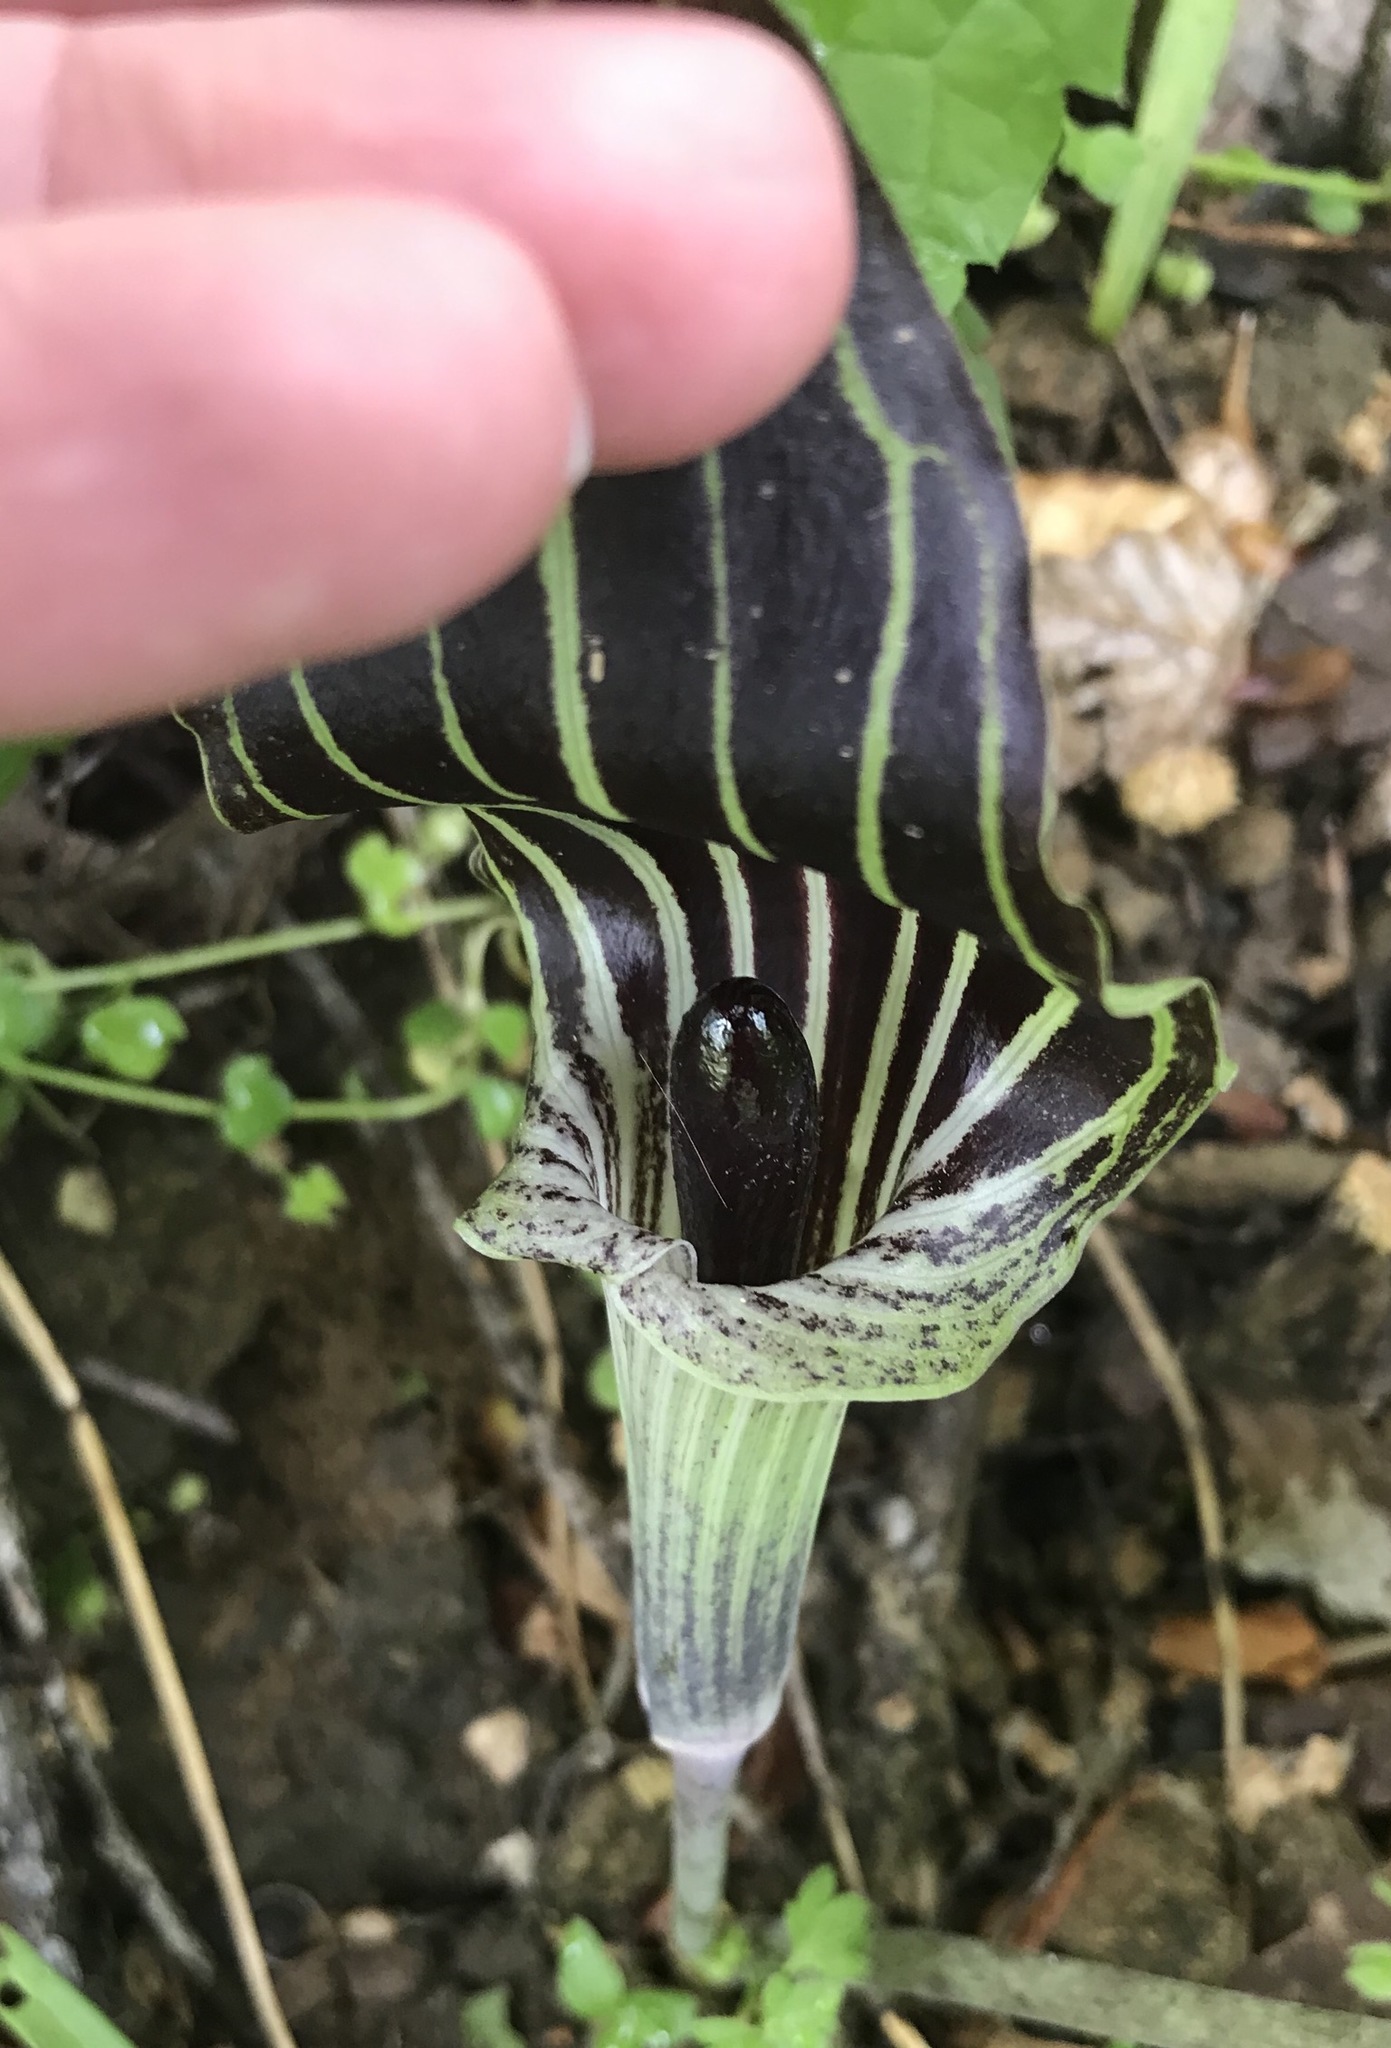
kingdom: Plantae
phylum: Tracheophyta
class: Liliopsida
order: Alismatales
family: Araceae
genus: Arisaema
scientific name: Arisaema triphyllum
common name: Jack-in-the-pulpit
